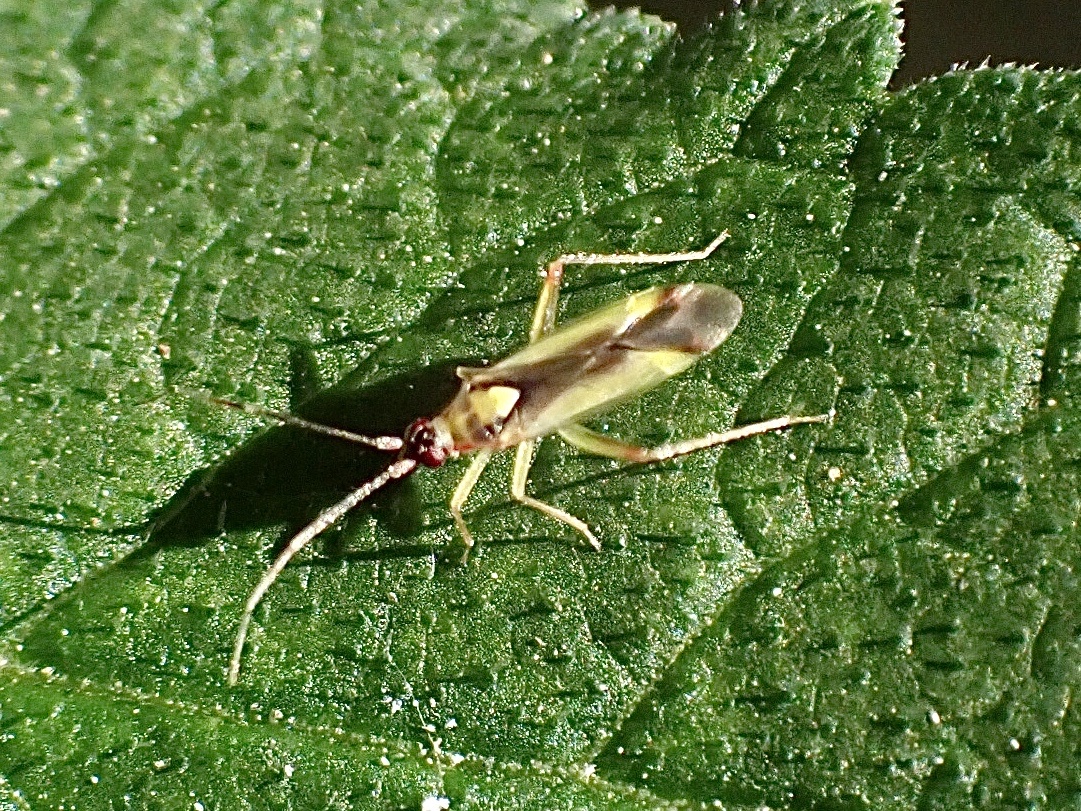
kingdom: Animalia
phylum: Arthropoda
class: Insecta
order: Hemiptera
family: Miridae
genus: Campyloneura
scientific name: Campyloneura virgula
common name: Predatory bug
